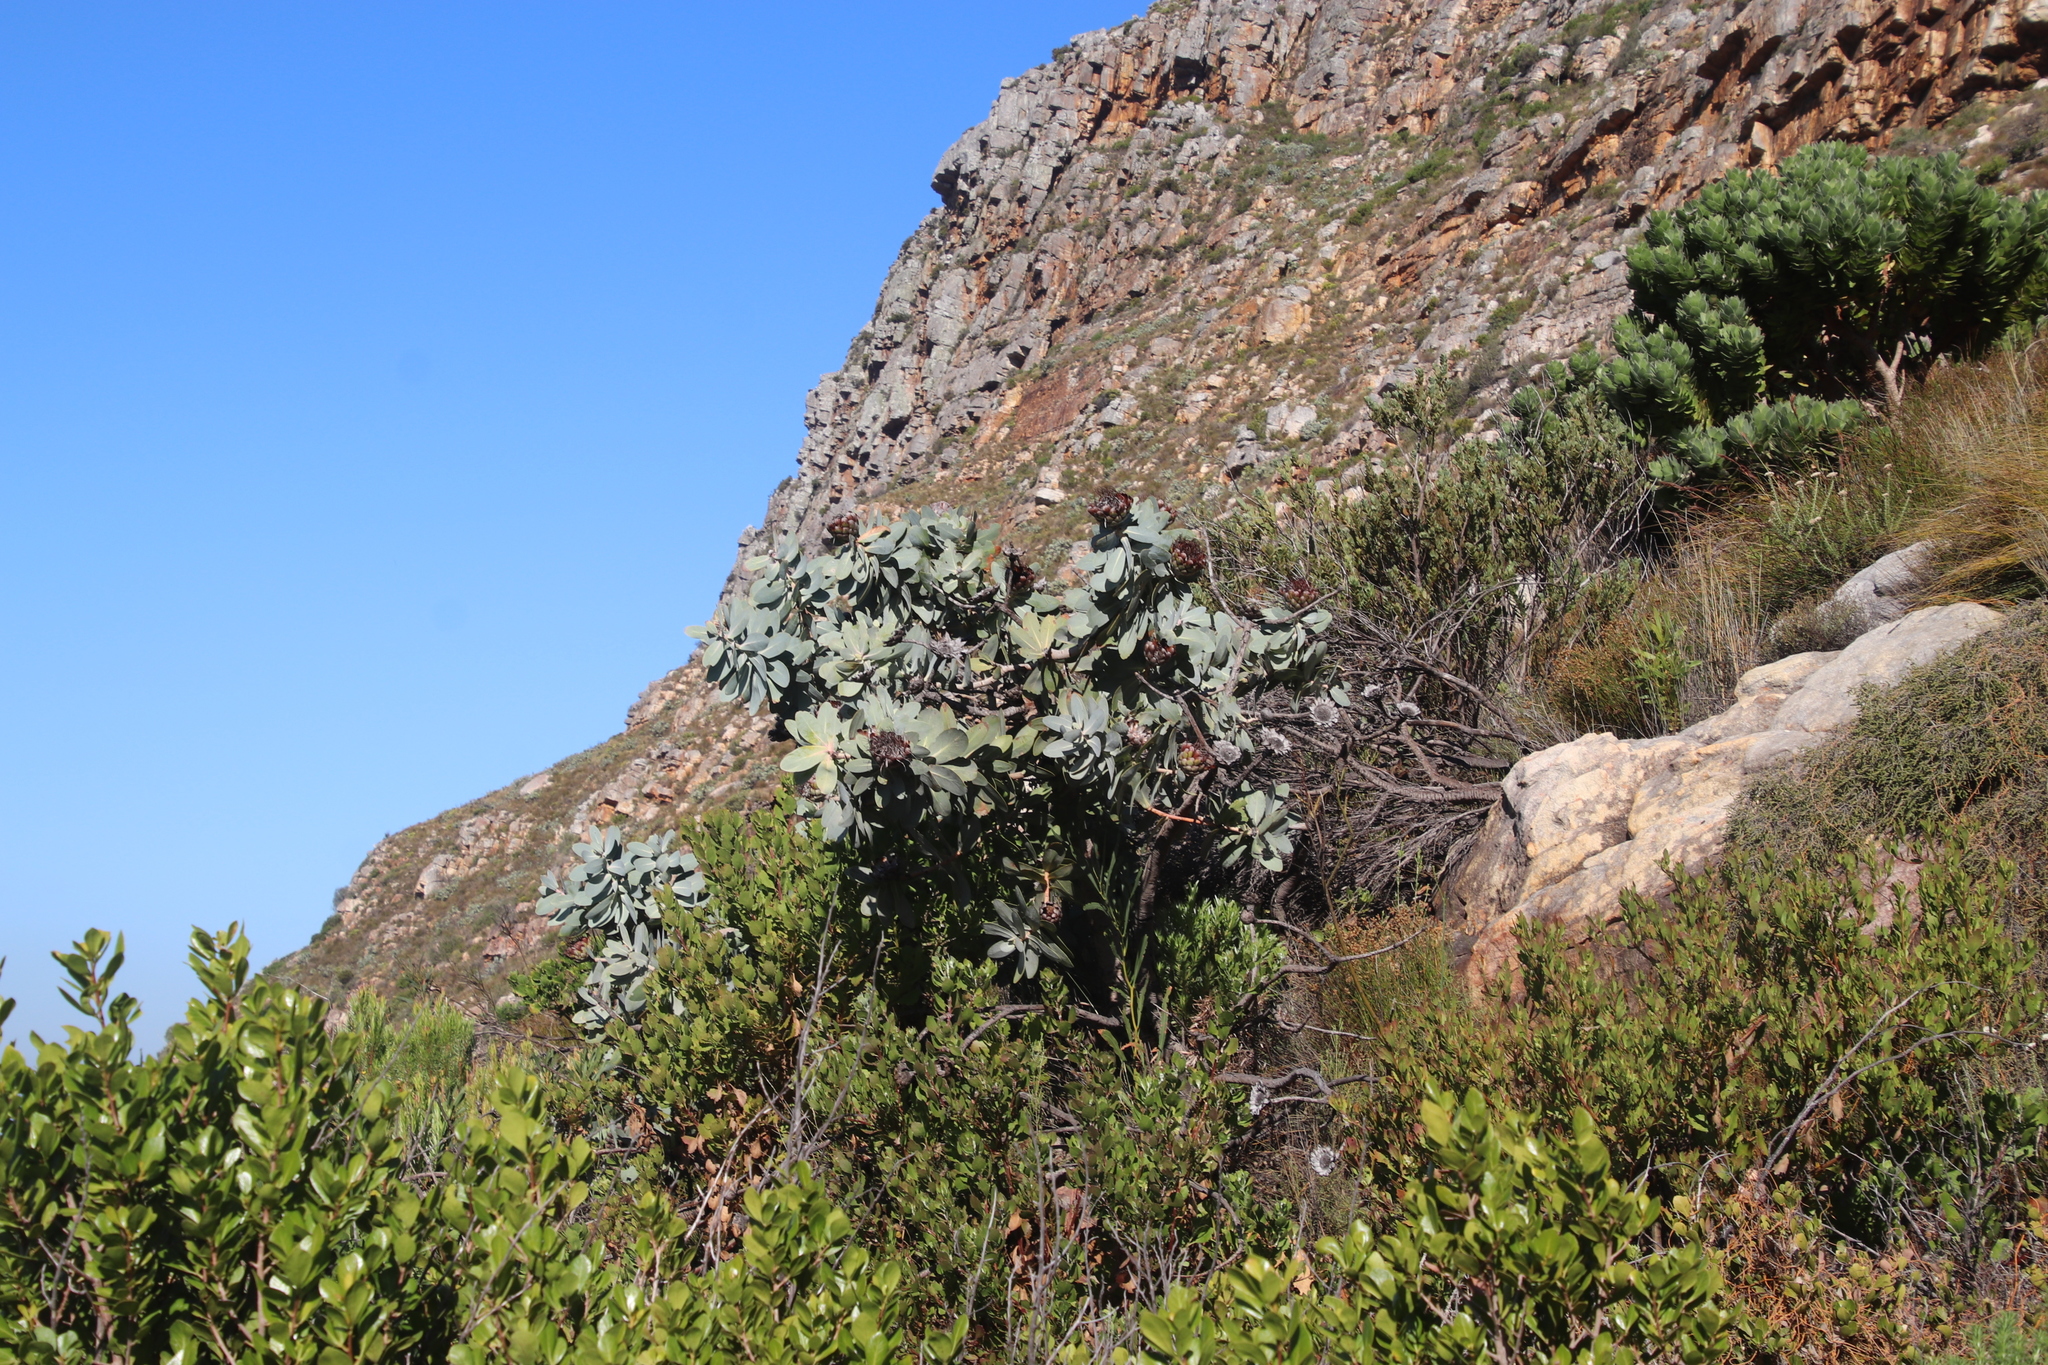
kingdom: Plantae
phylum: Tracheophyta
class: Magnoliopsida
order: Proteales
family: Proteaceae
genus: Protea
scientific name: Protea nitida
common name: Tree protea
